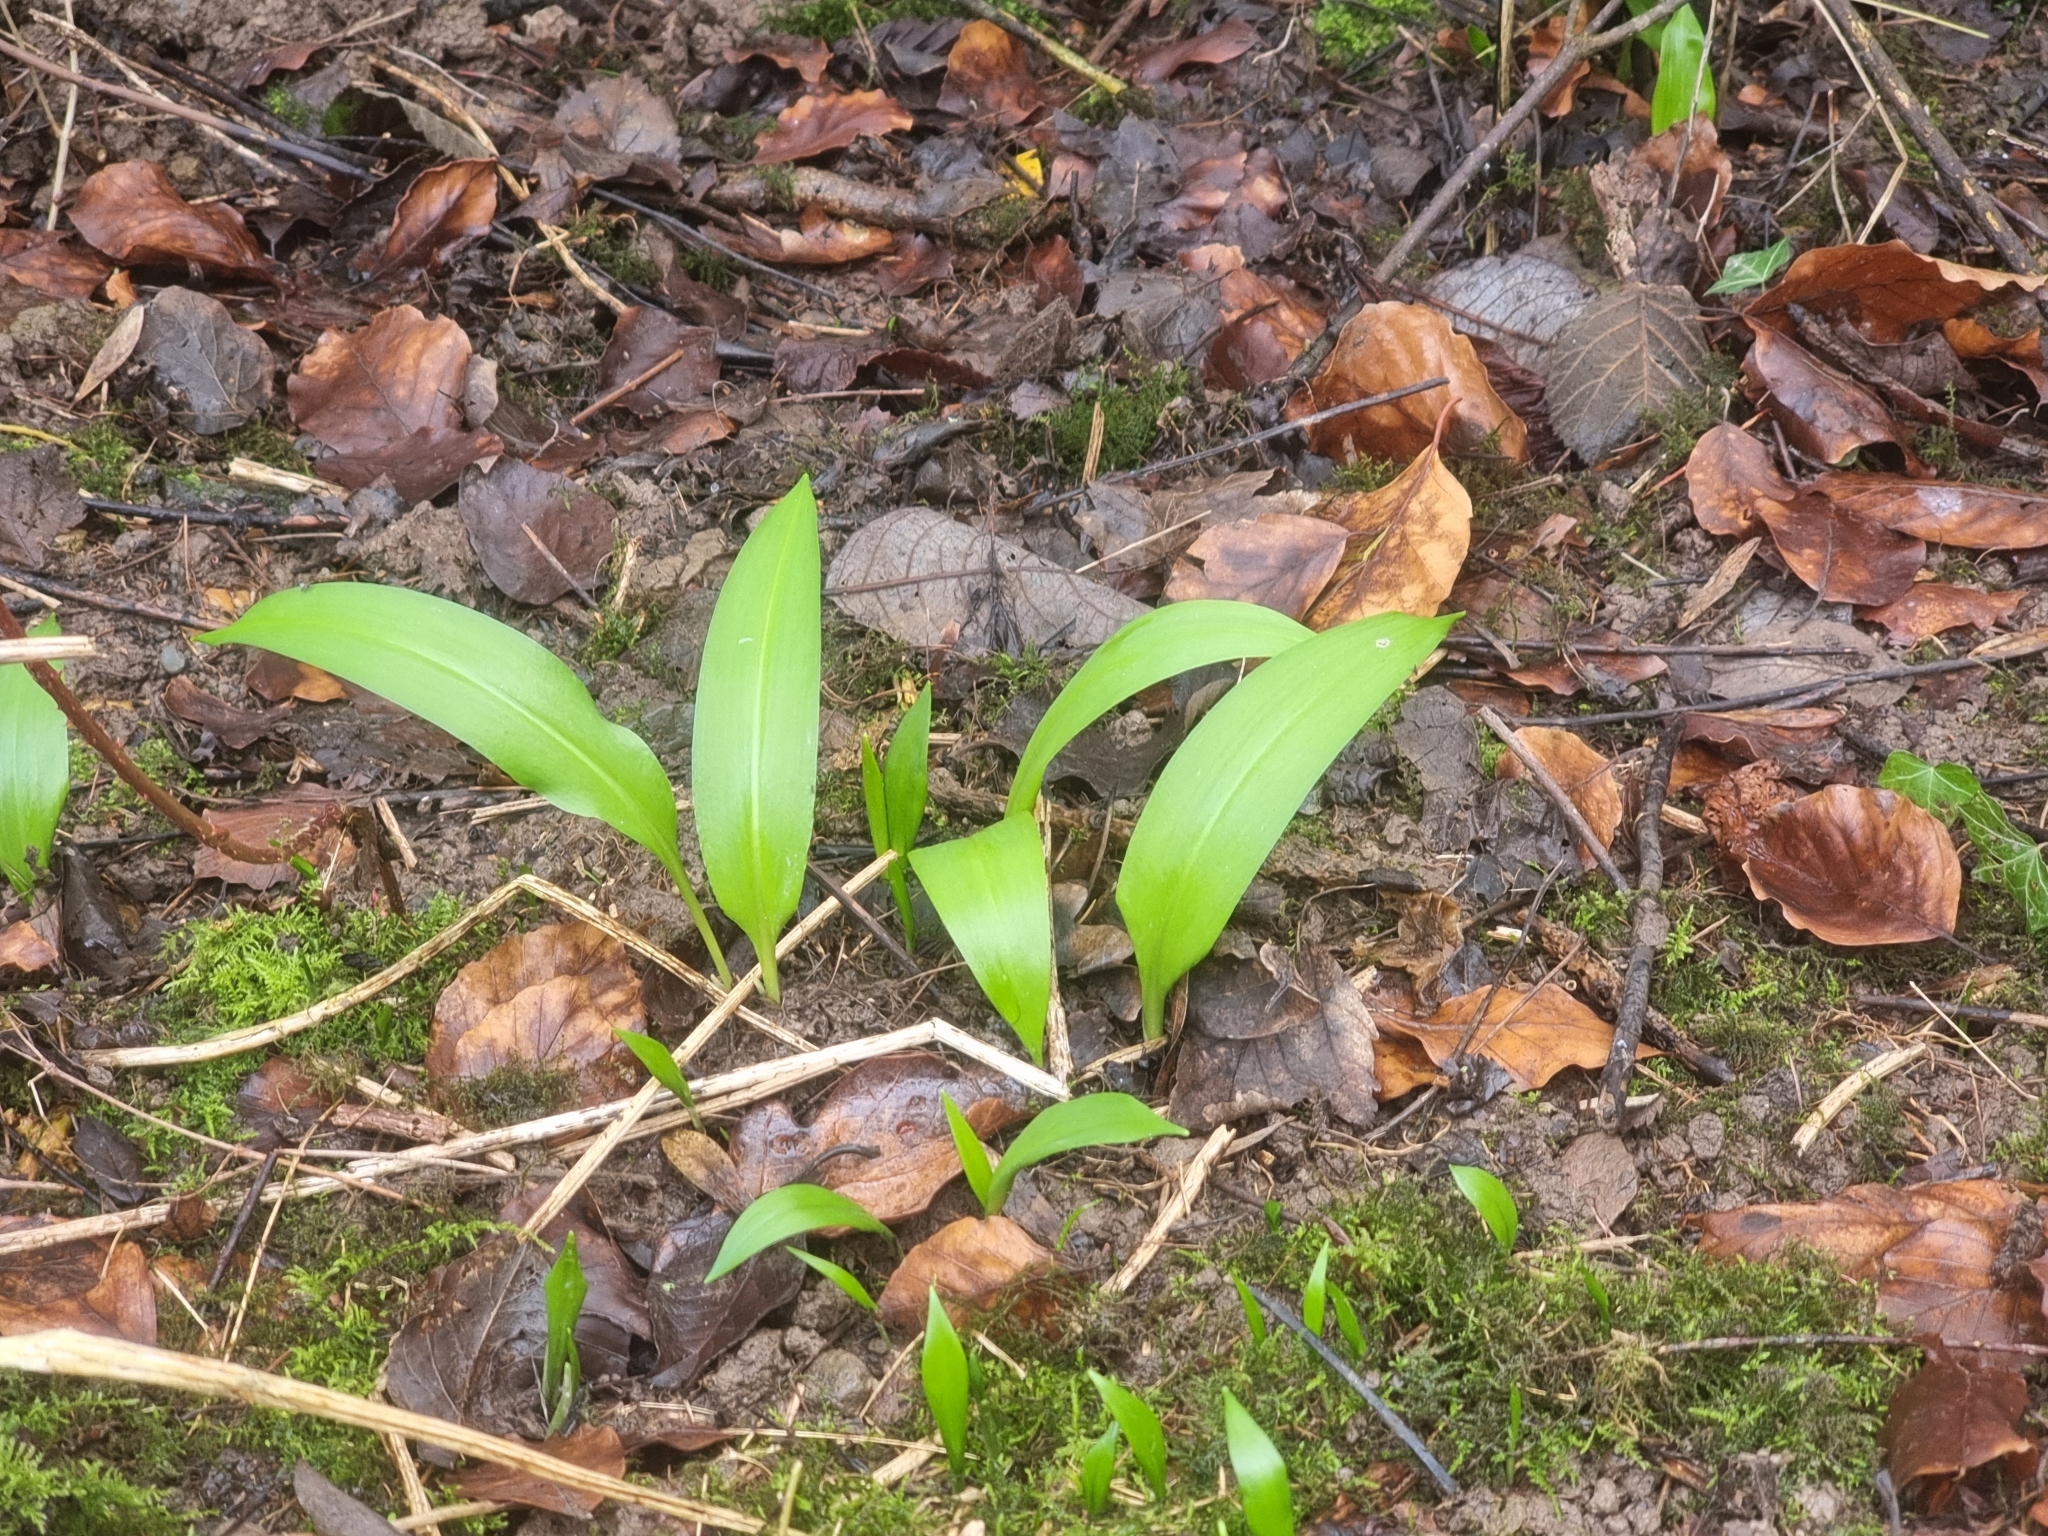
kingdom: Plantae
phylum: Tracheophyta
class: Liliopsida
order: Asparagales
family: Amaryllidaceae
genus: Allium
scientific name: Allium ursinum
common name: Ramsons
